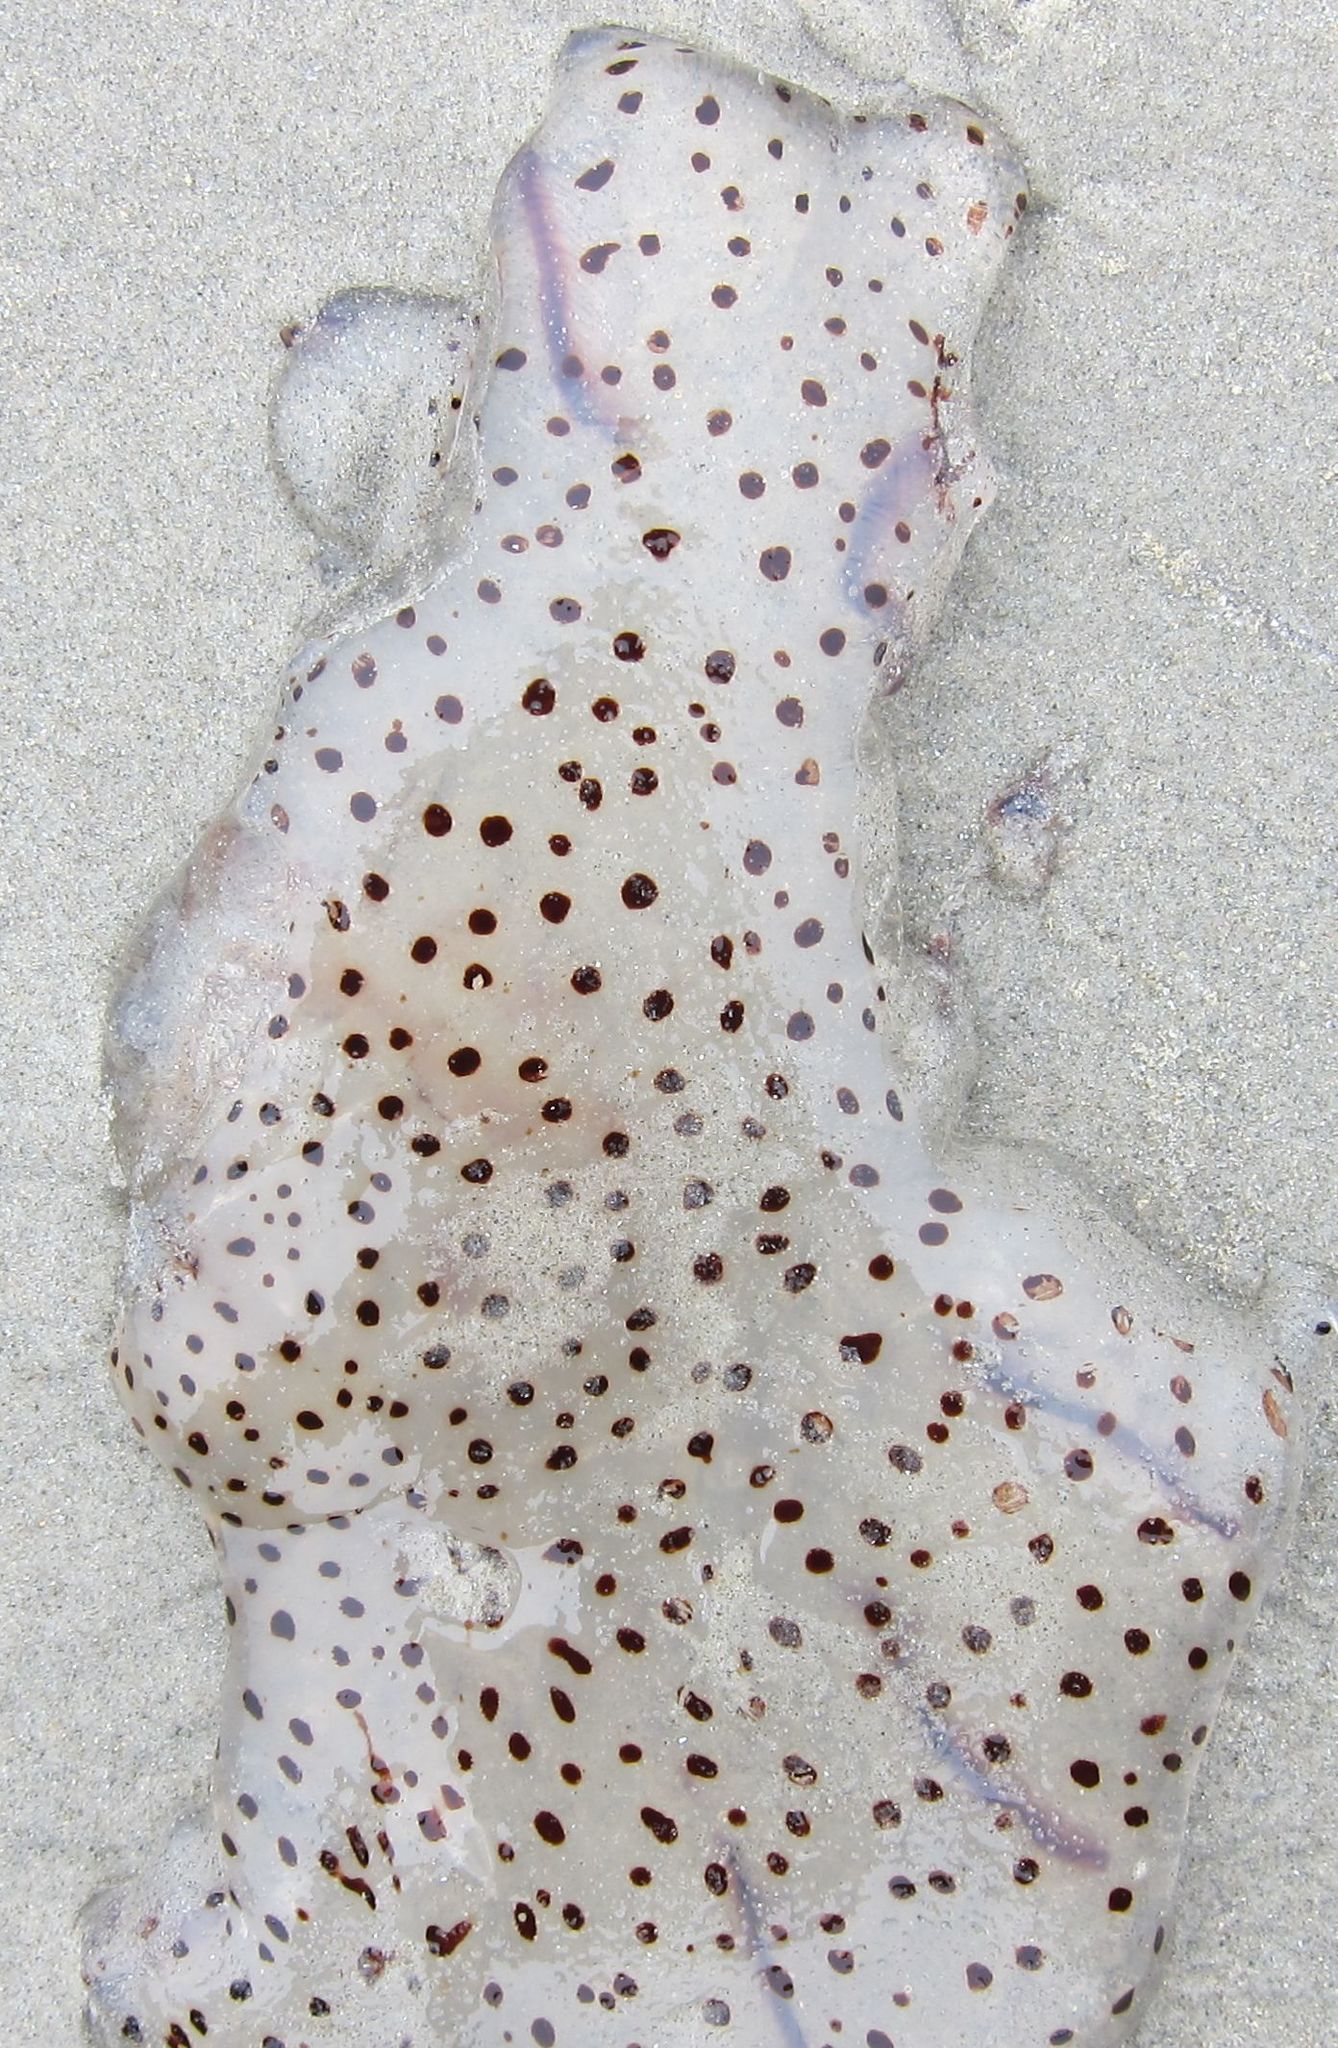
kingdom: Animalia
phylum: Cnidaria
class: Scyphozoa
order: Semaeostomeae
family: Cyaneidae
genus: Desmonema
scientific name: Desmonema gaudichaudi
